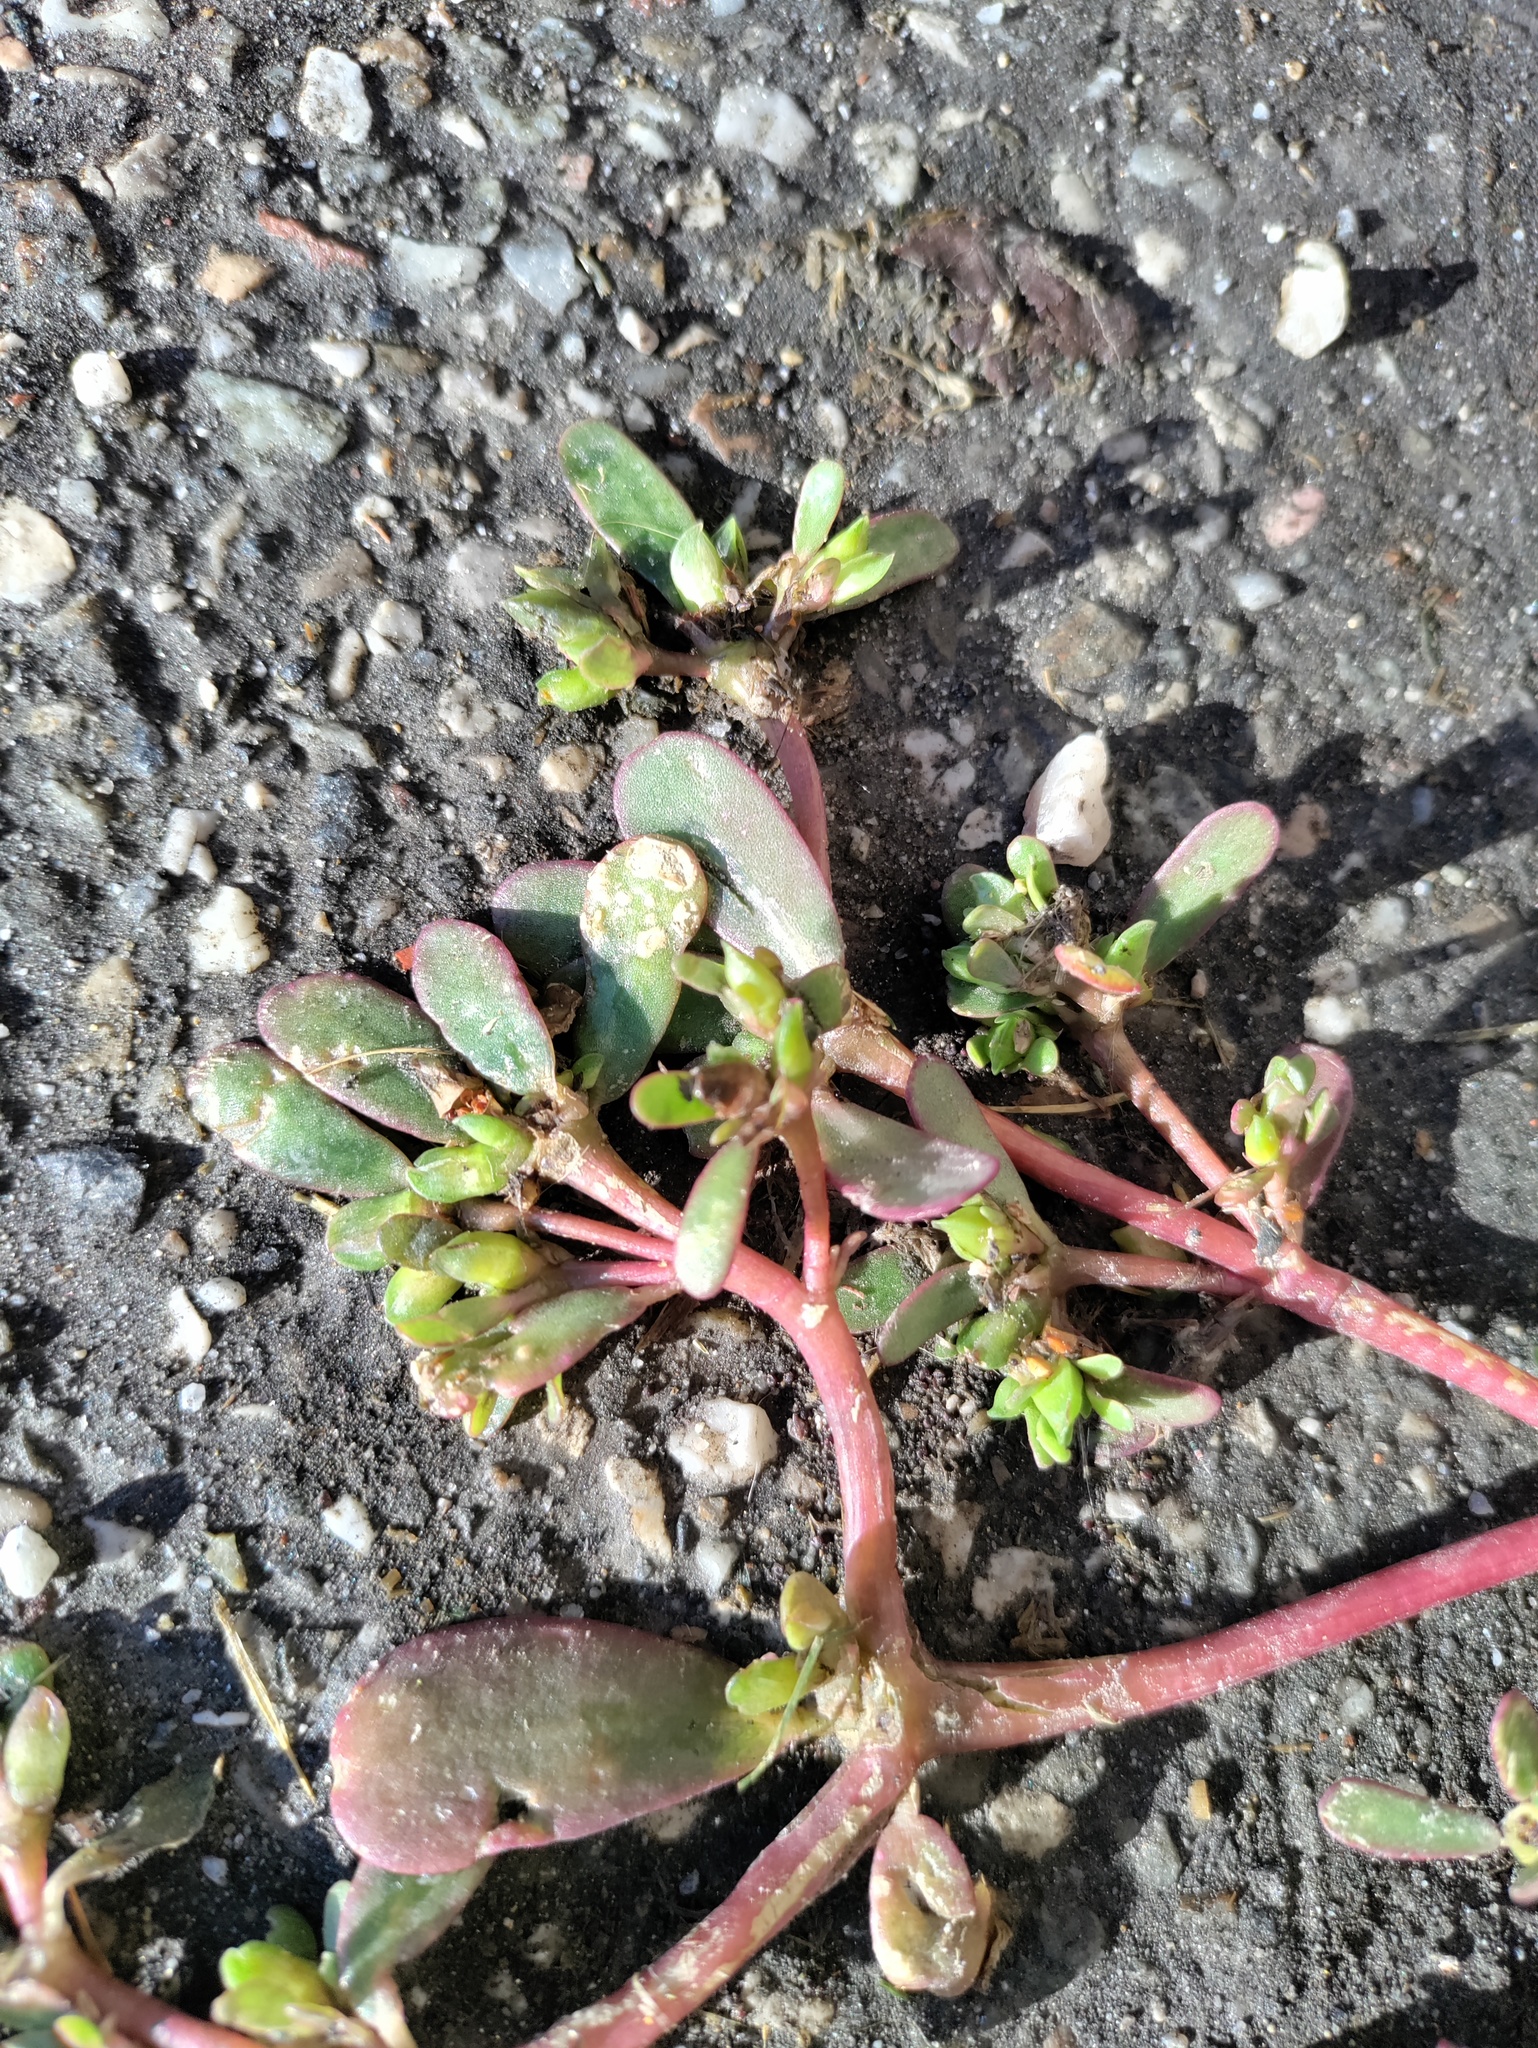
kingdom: Plantae
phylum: Tracheophyta
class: Magnoliopsida
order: Caryophyllales
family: Portulacaceae
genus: Portulaca
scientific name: Portulaca oleracea
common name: Common purslane
